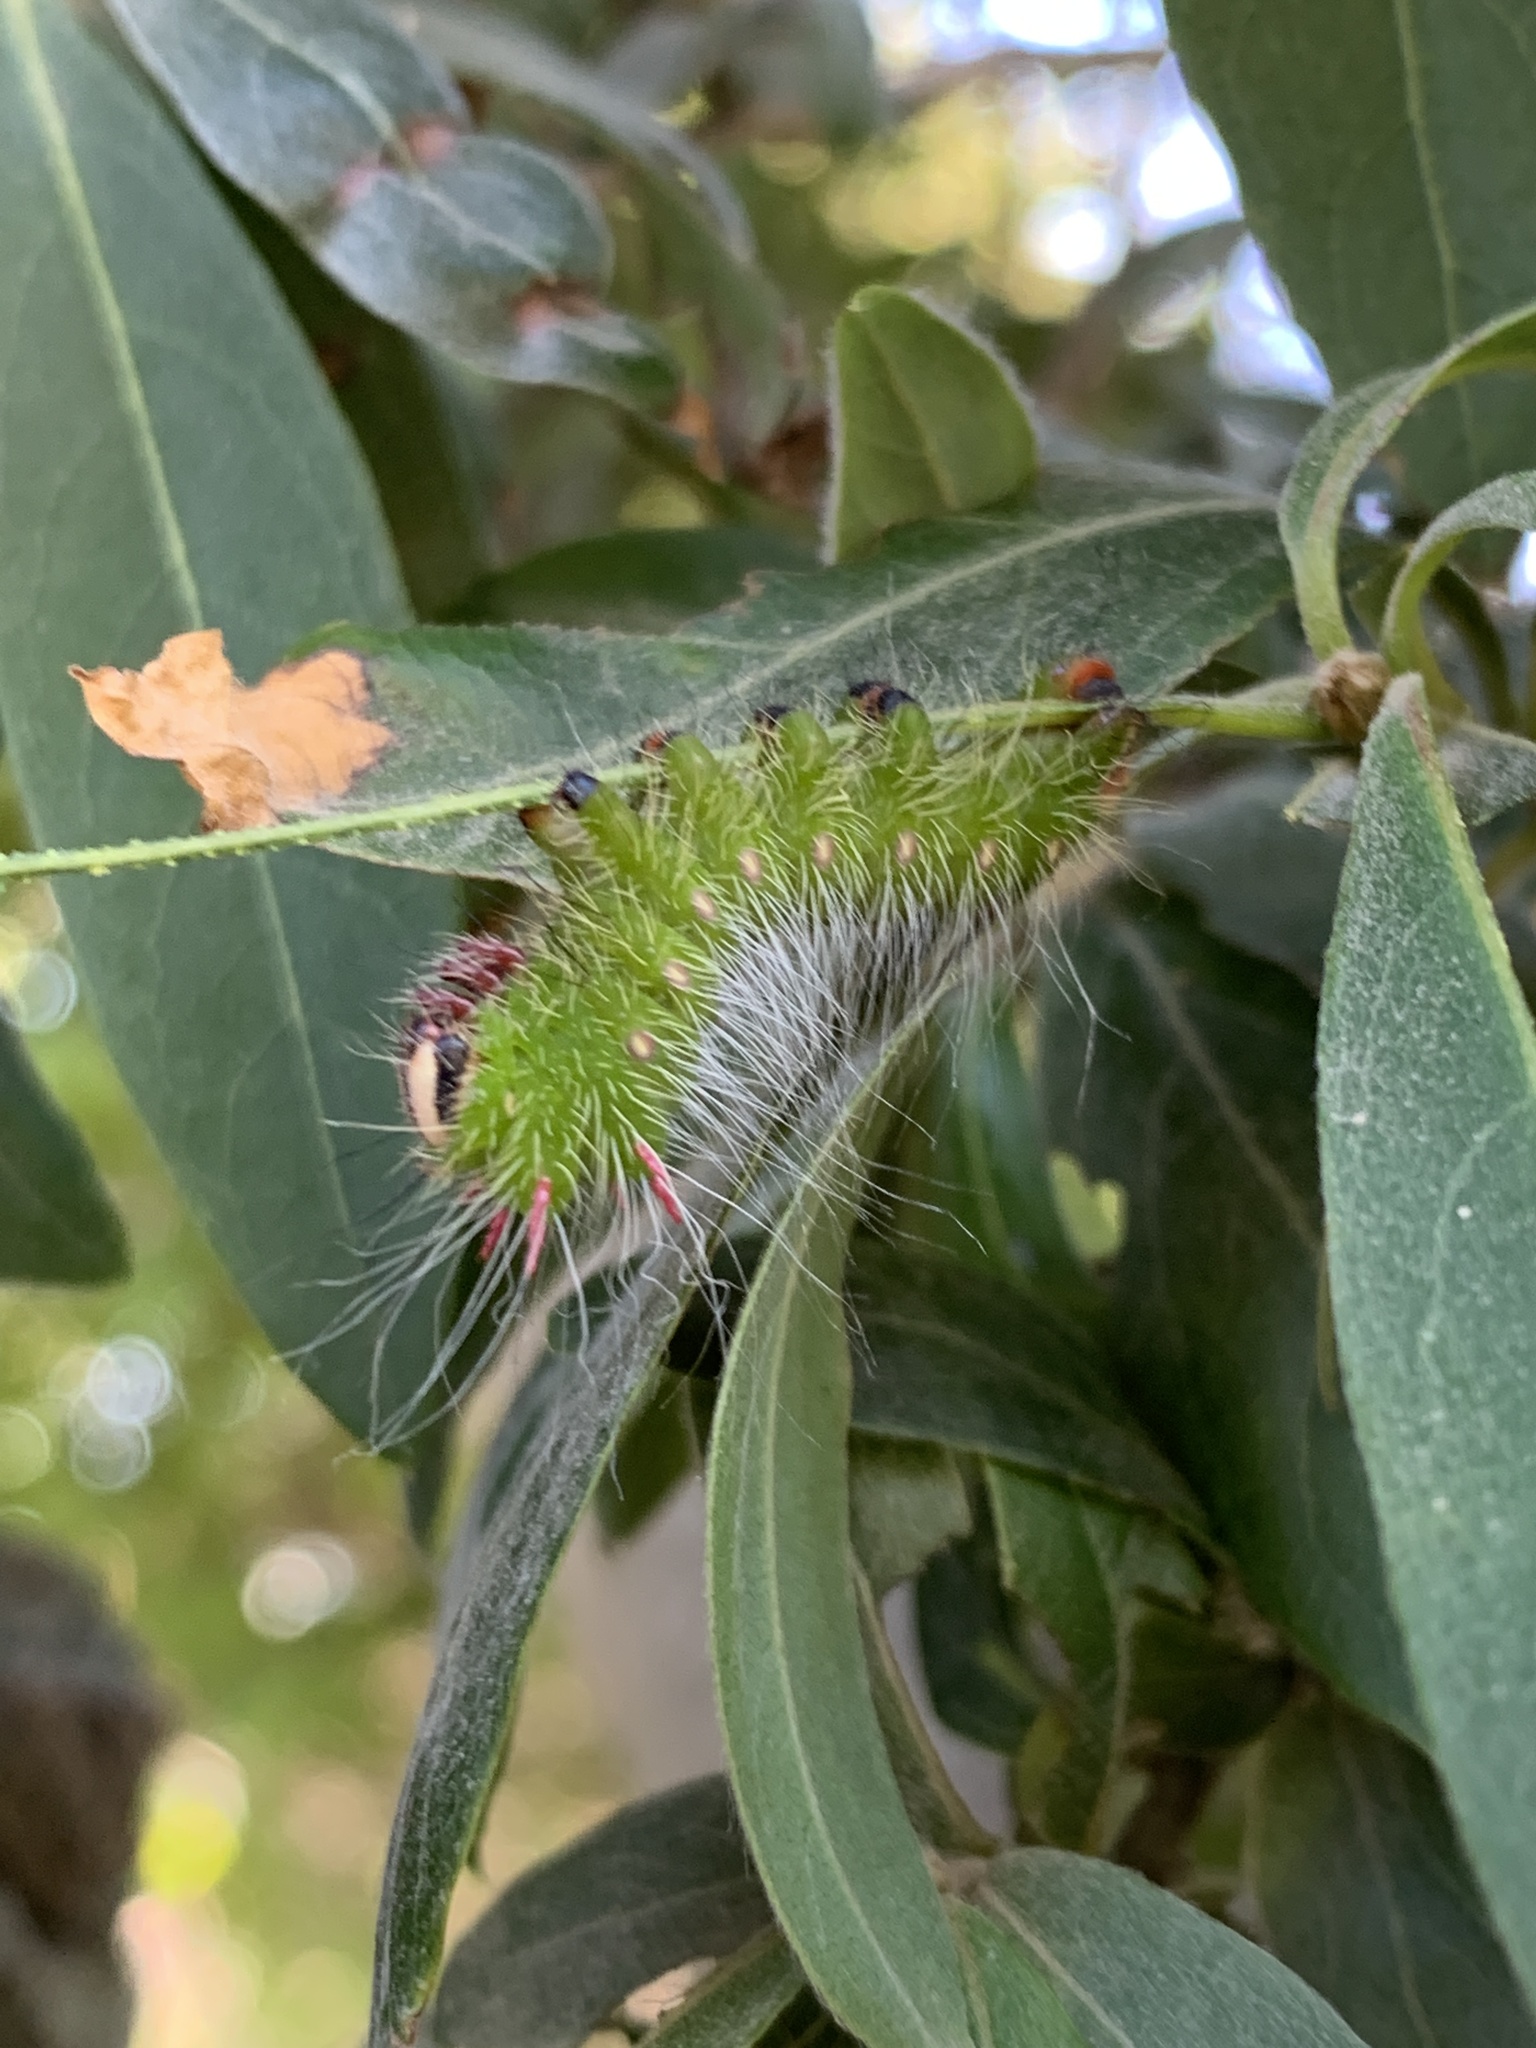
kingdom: Animalia
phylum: Arthropoda
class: Insecta
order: Lepidoptera
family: Saturniidae
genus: Eacles
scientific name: Eacles imperialis
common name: Imperial moth
